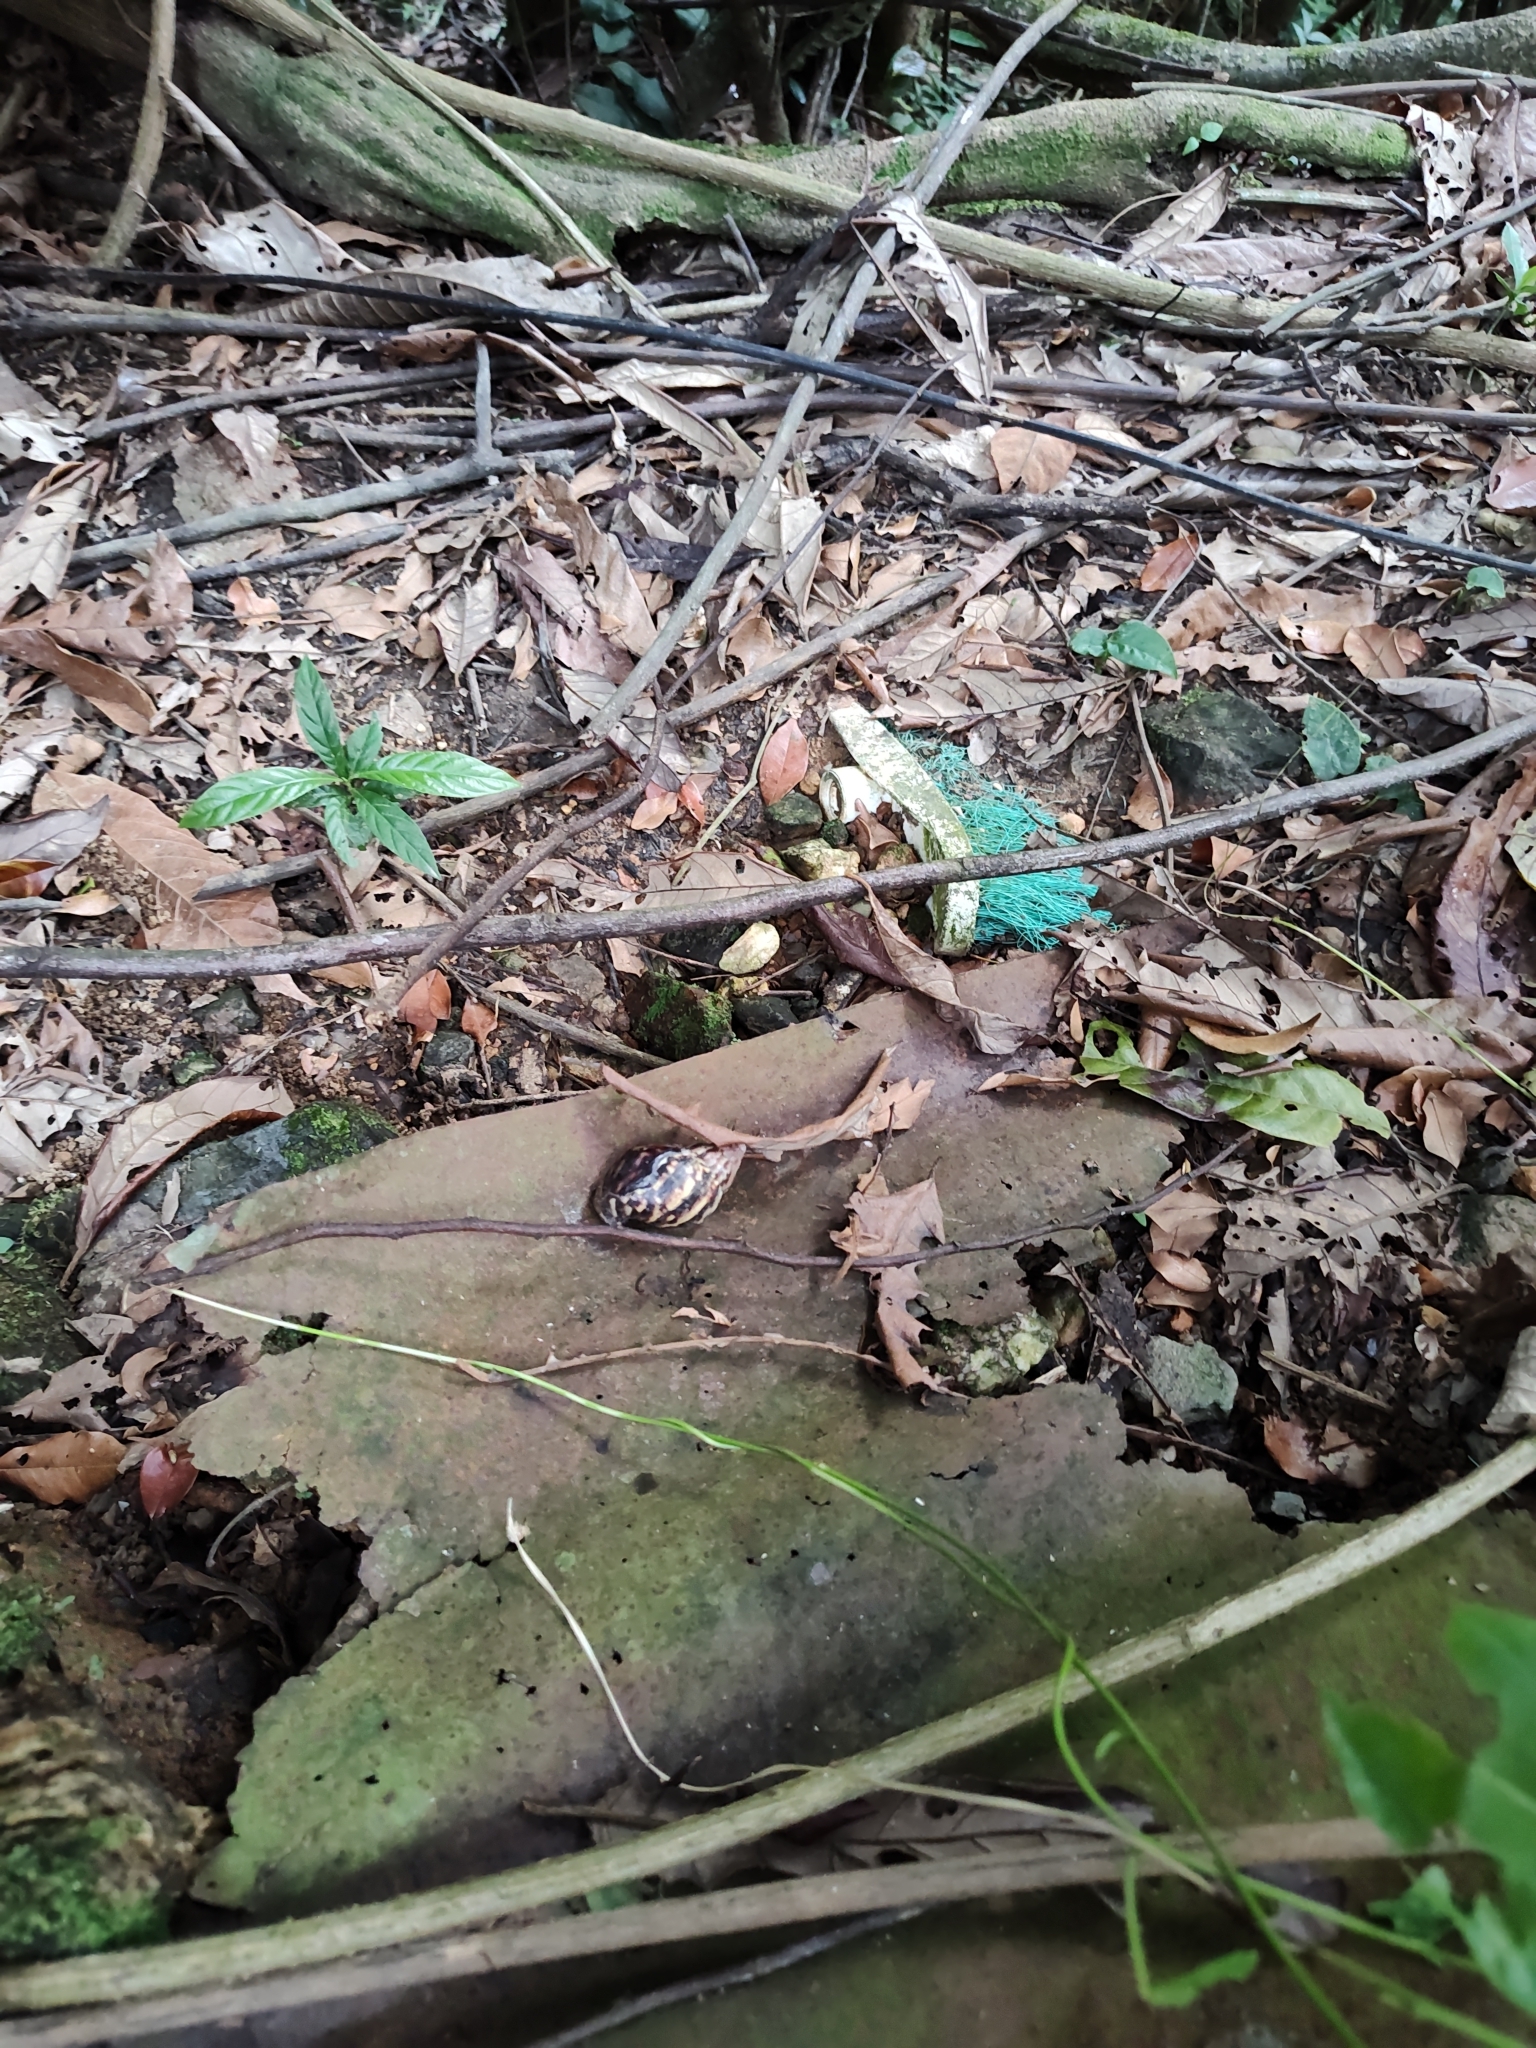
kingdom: Animalia
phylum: Mollusca
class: Gastropoda
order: Stylommatophora
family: Achatinidae
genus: Lissachatina
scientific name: Lissachatina fulica
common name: Giant african snail
